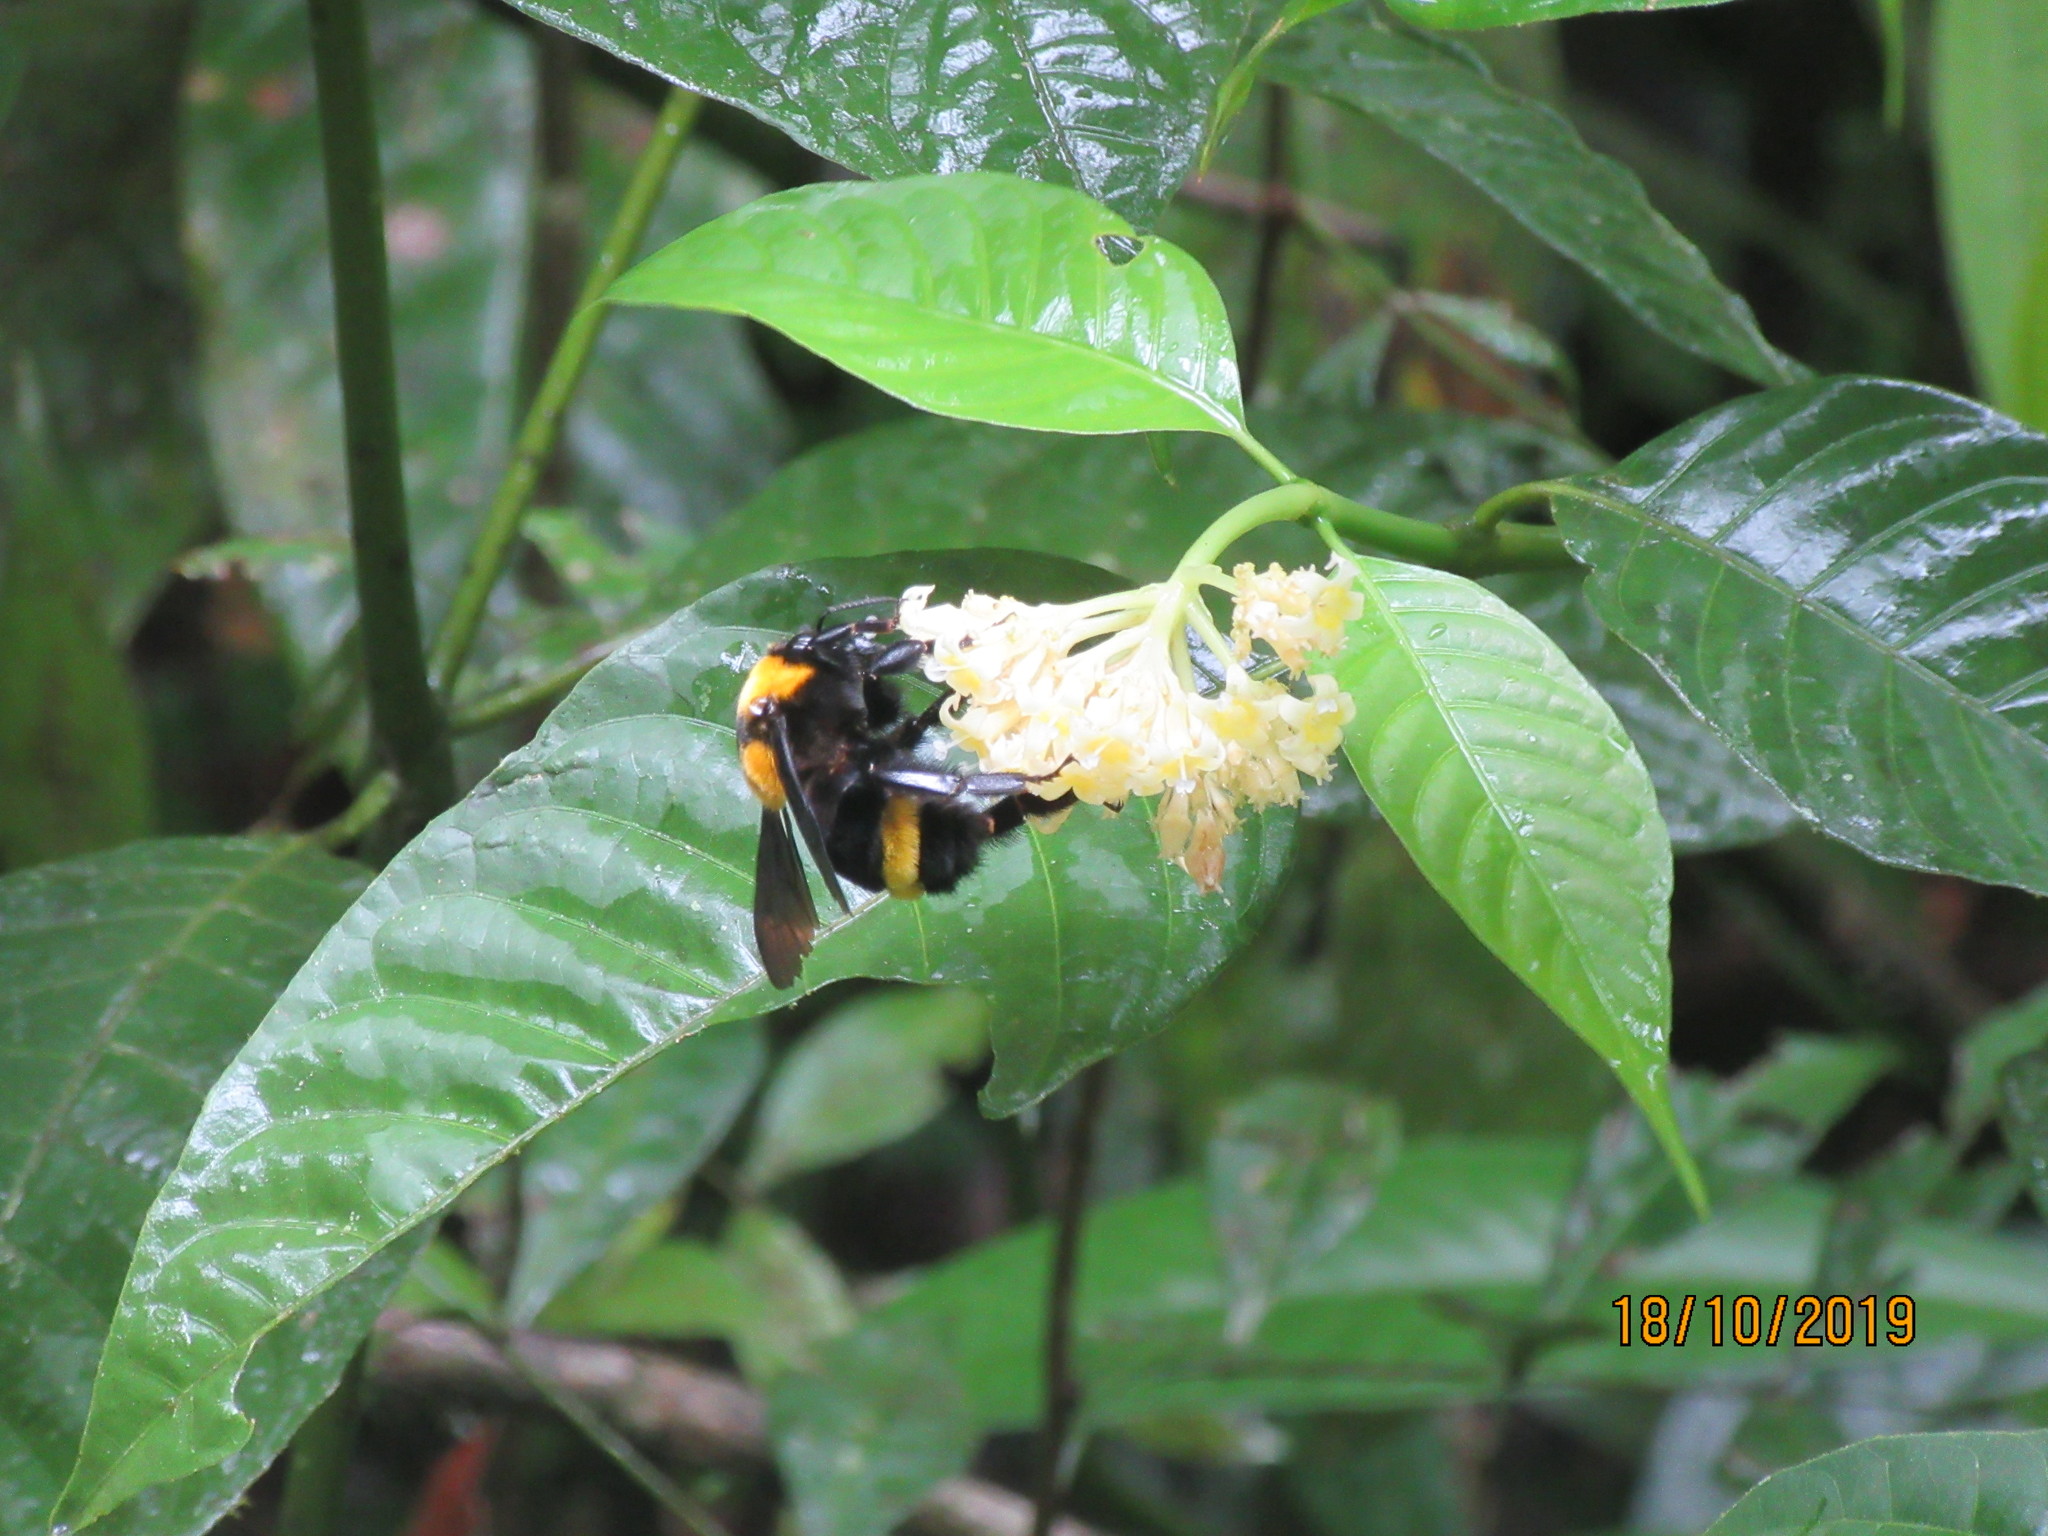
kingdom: Animalia
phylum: Arthropoda
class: Insecta
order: Hymenoptera
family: Apidae
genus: Bombus
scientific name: Bombus transversalis
